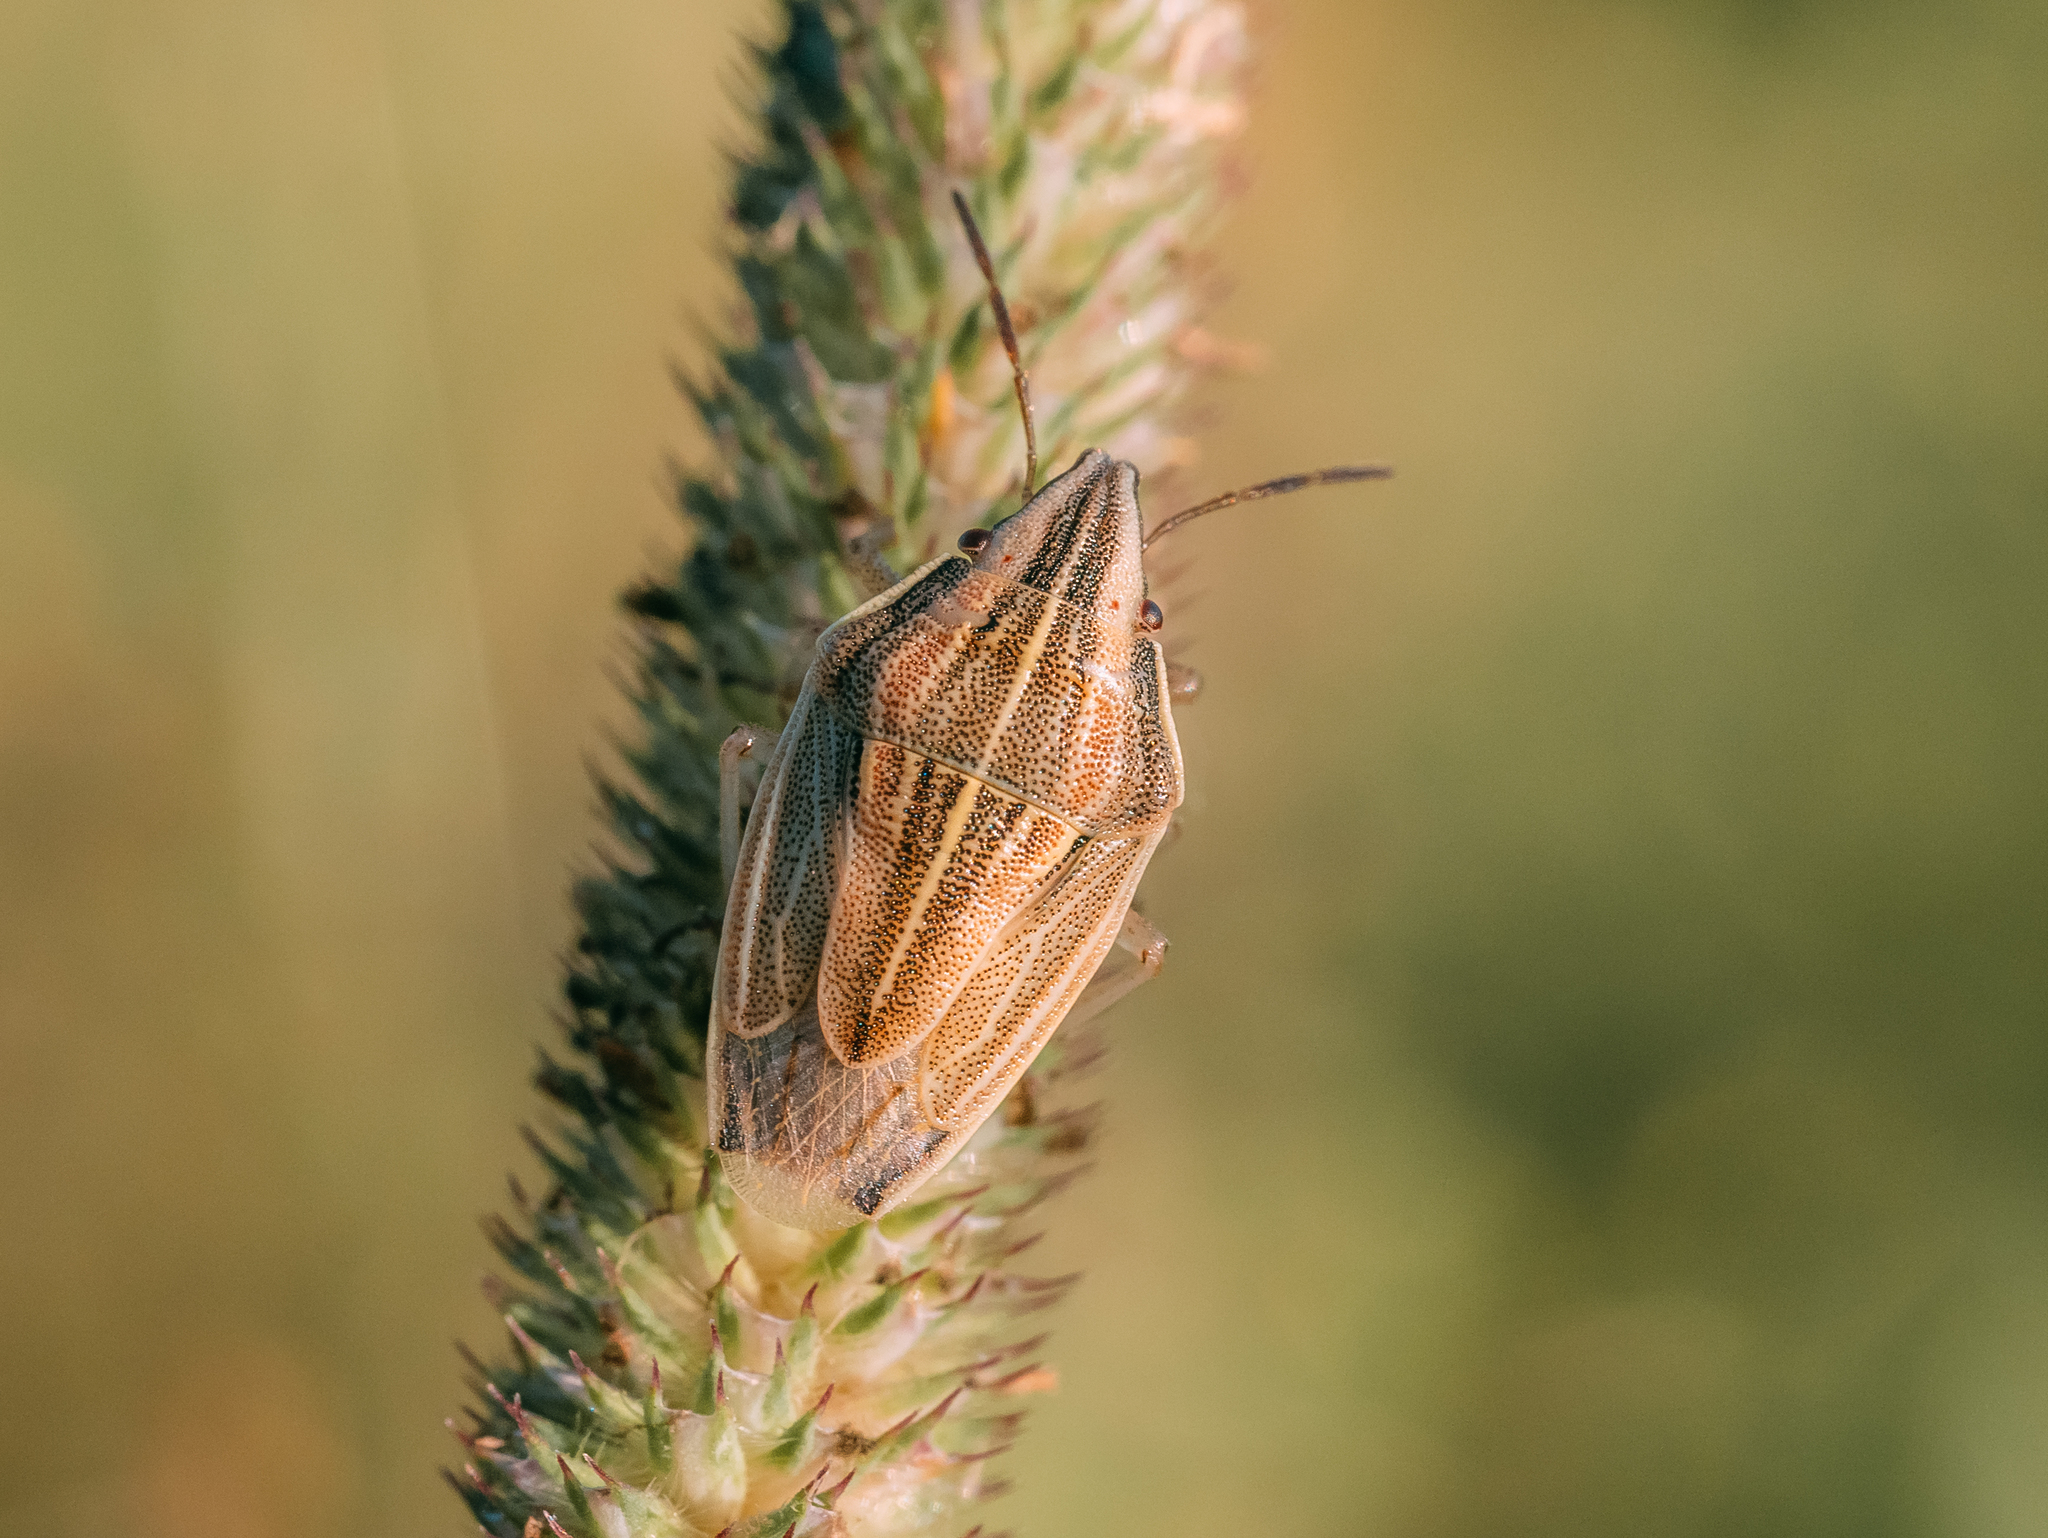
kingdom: Animalia
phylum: Arthropoda
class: Insecta
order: Hemiptera
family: Pentatomidae
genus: Aelia
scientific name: Aelia acuminata
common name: Bishop's mitre
